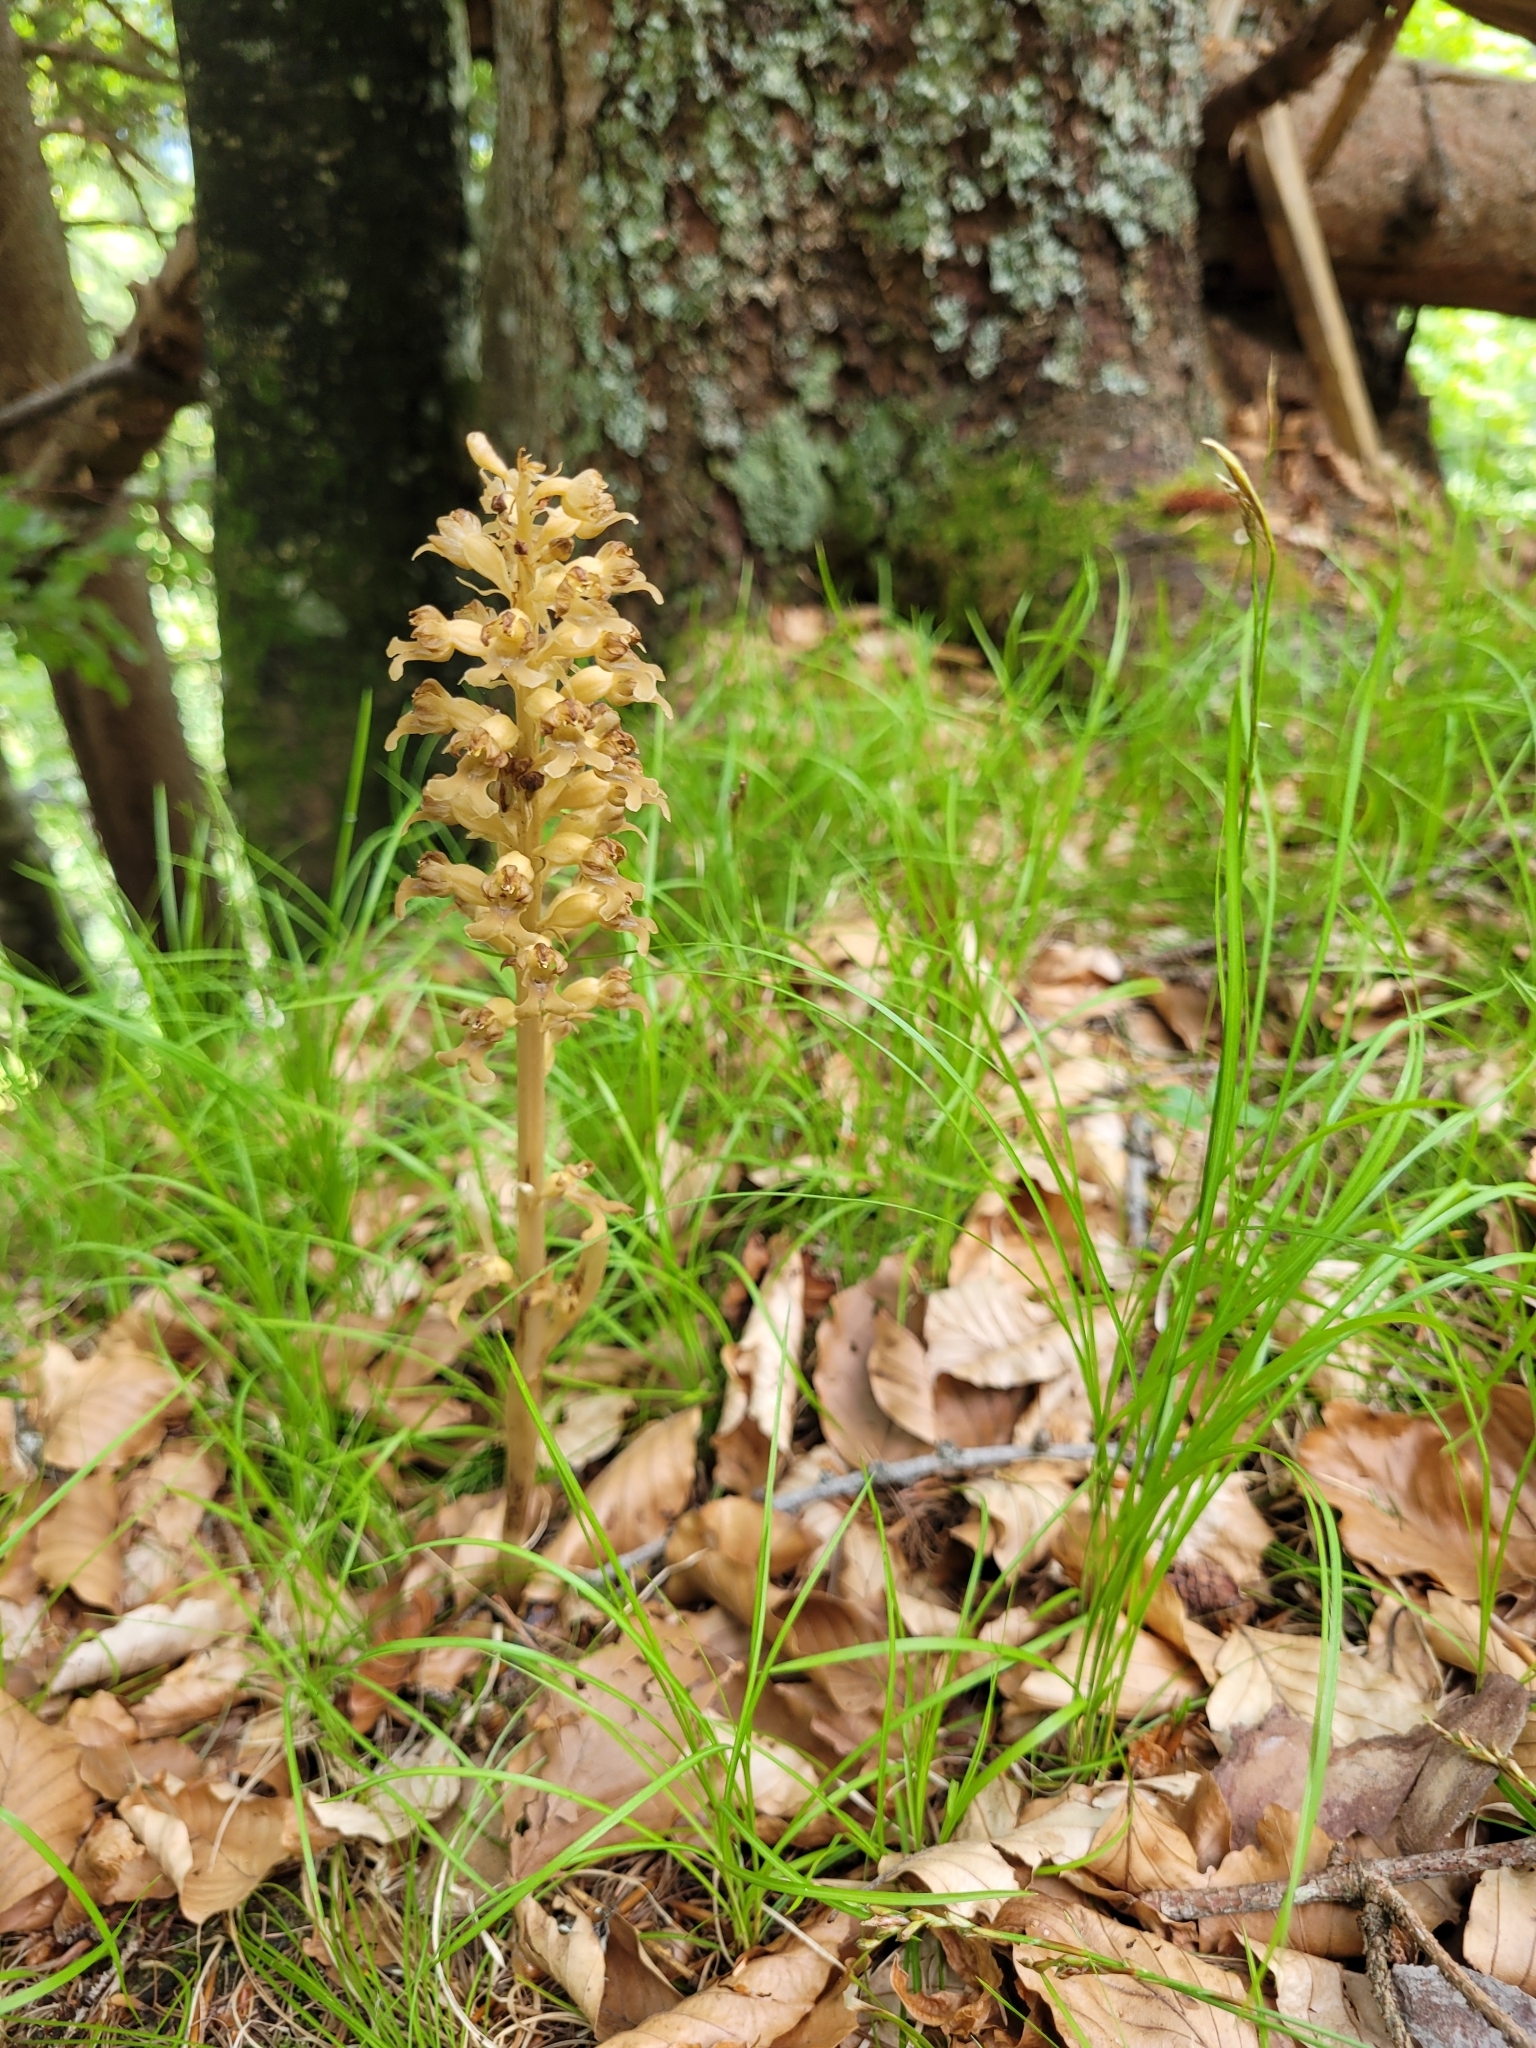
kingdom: Plantae
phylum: Tracheophyta
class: Liliopsida
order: Asparagales
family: Orchidaceae
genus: Neottia
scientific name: Neottia nidus-avis
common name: Bird's-nest orchid
